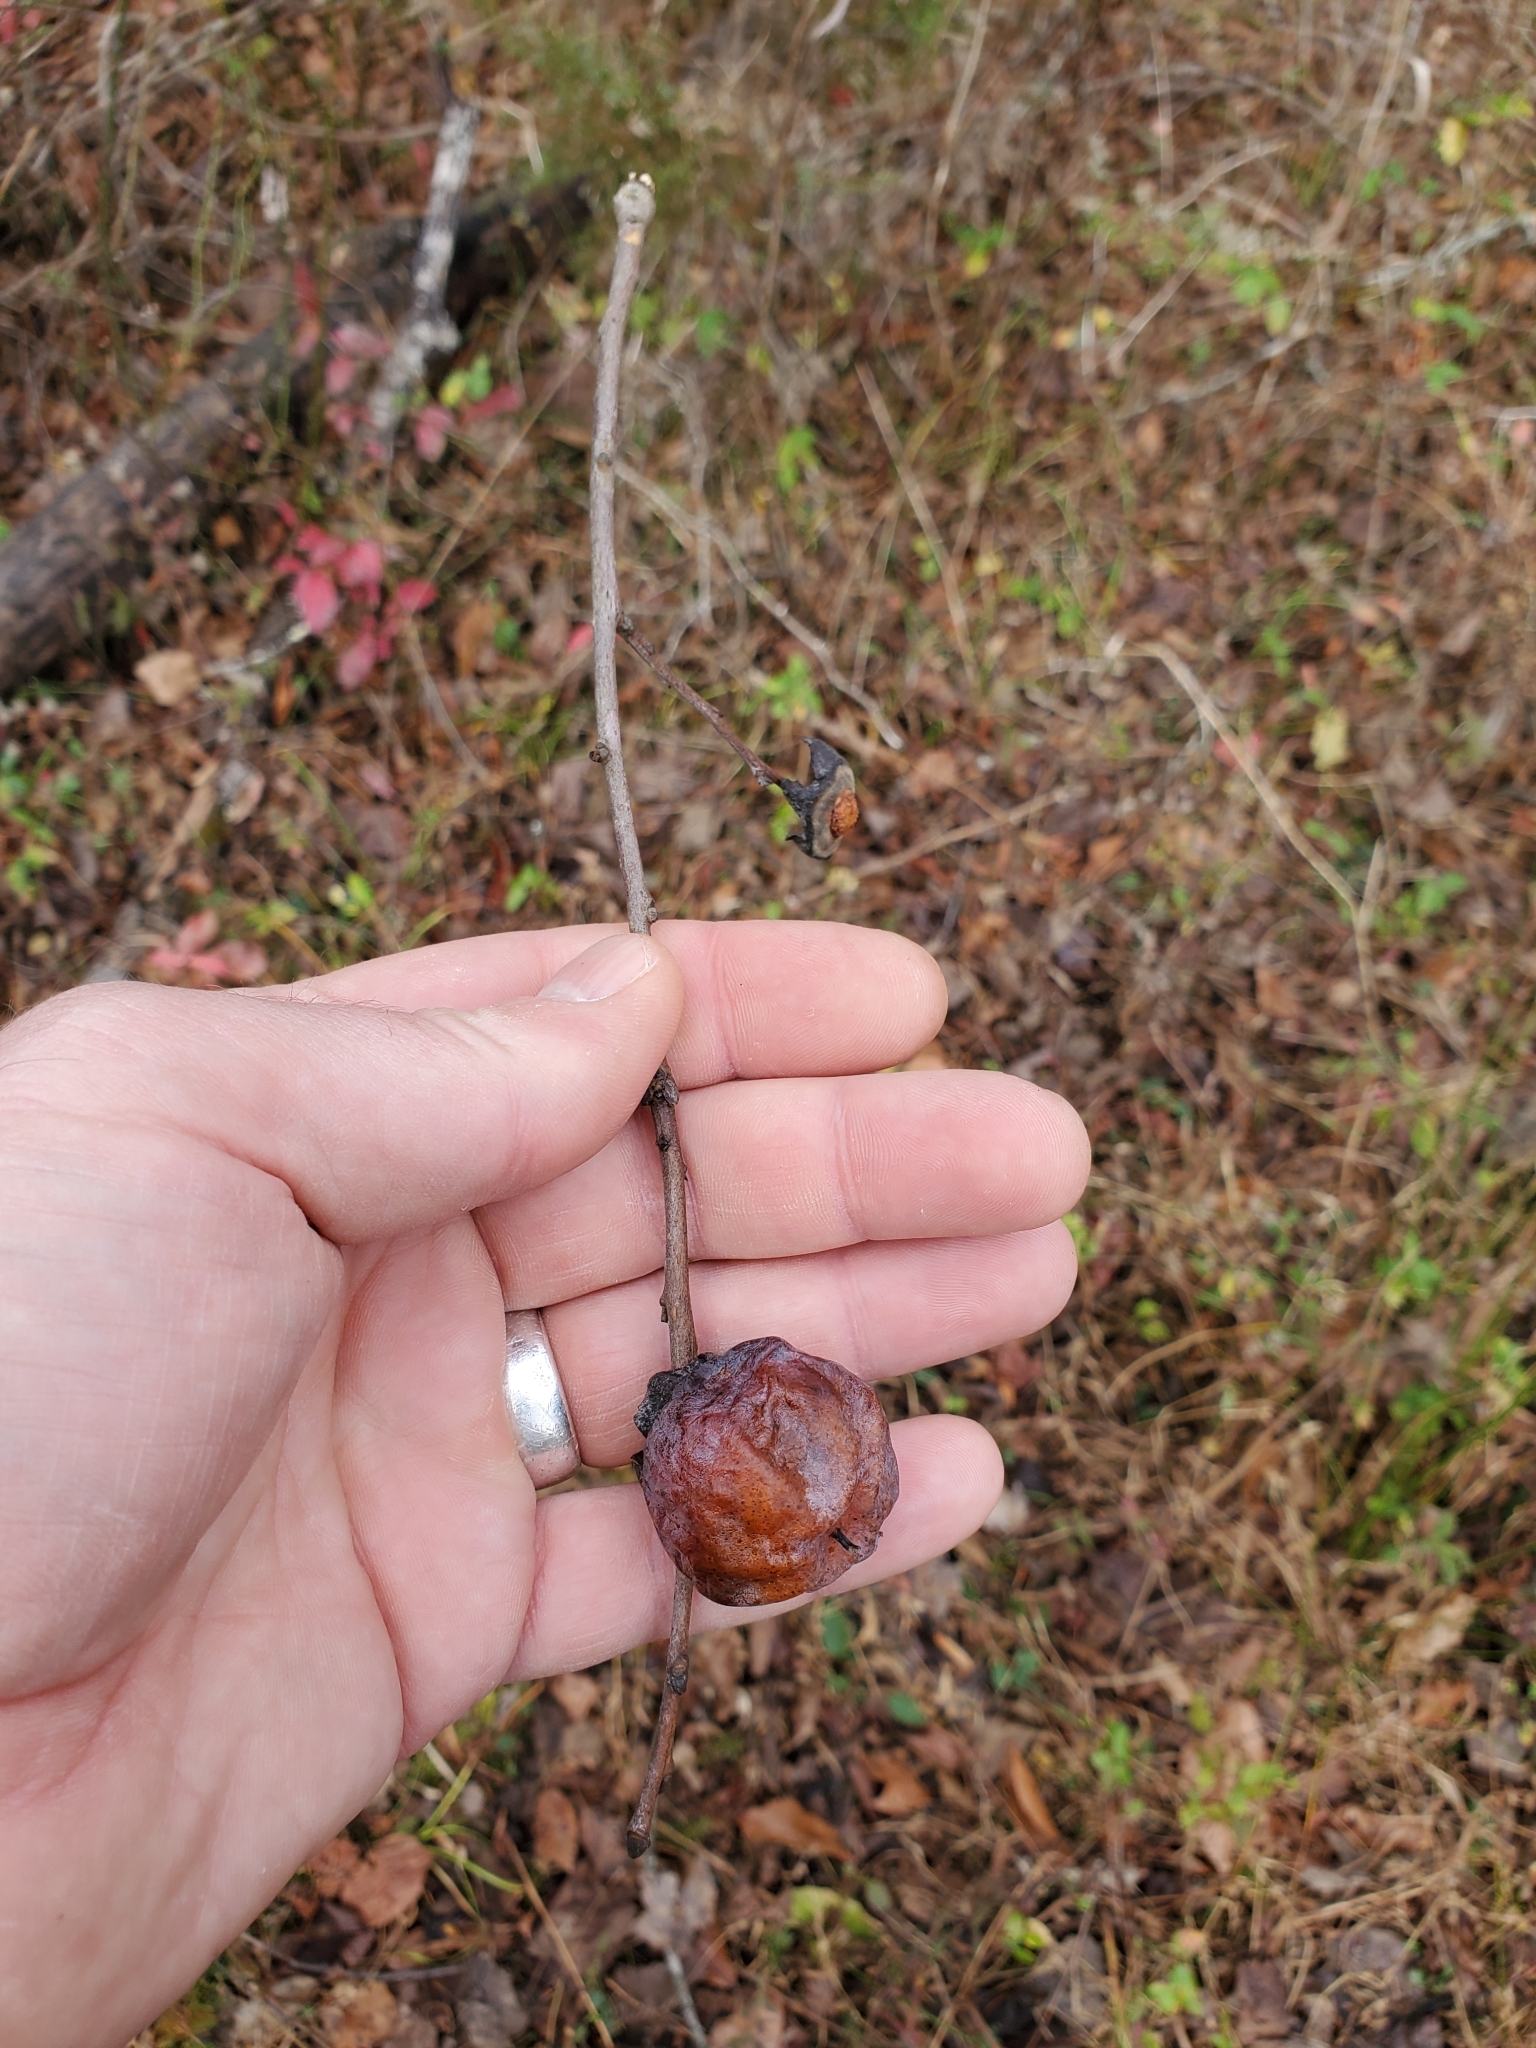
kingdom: Plantae
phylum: Tracheophyta
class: Magnoliopsida
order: Ericales
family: Ebenaceae
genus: Diospyros
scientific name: Diospyros virginiana
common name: Persimmon
